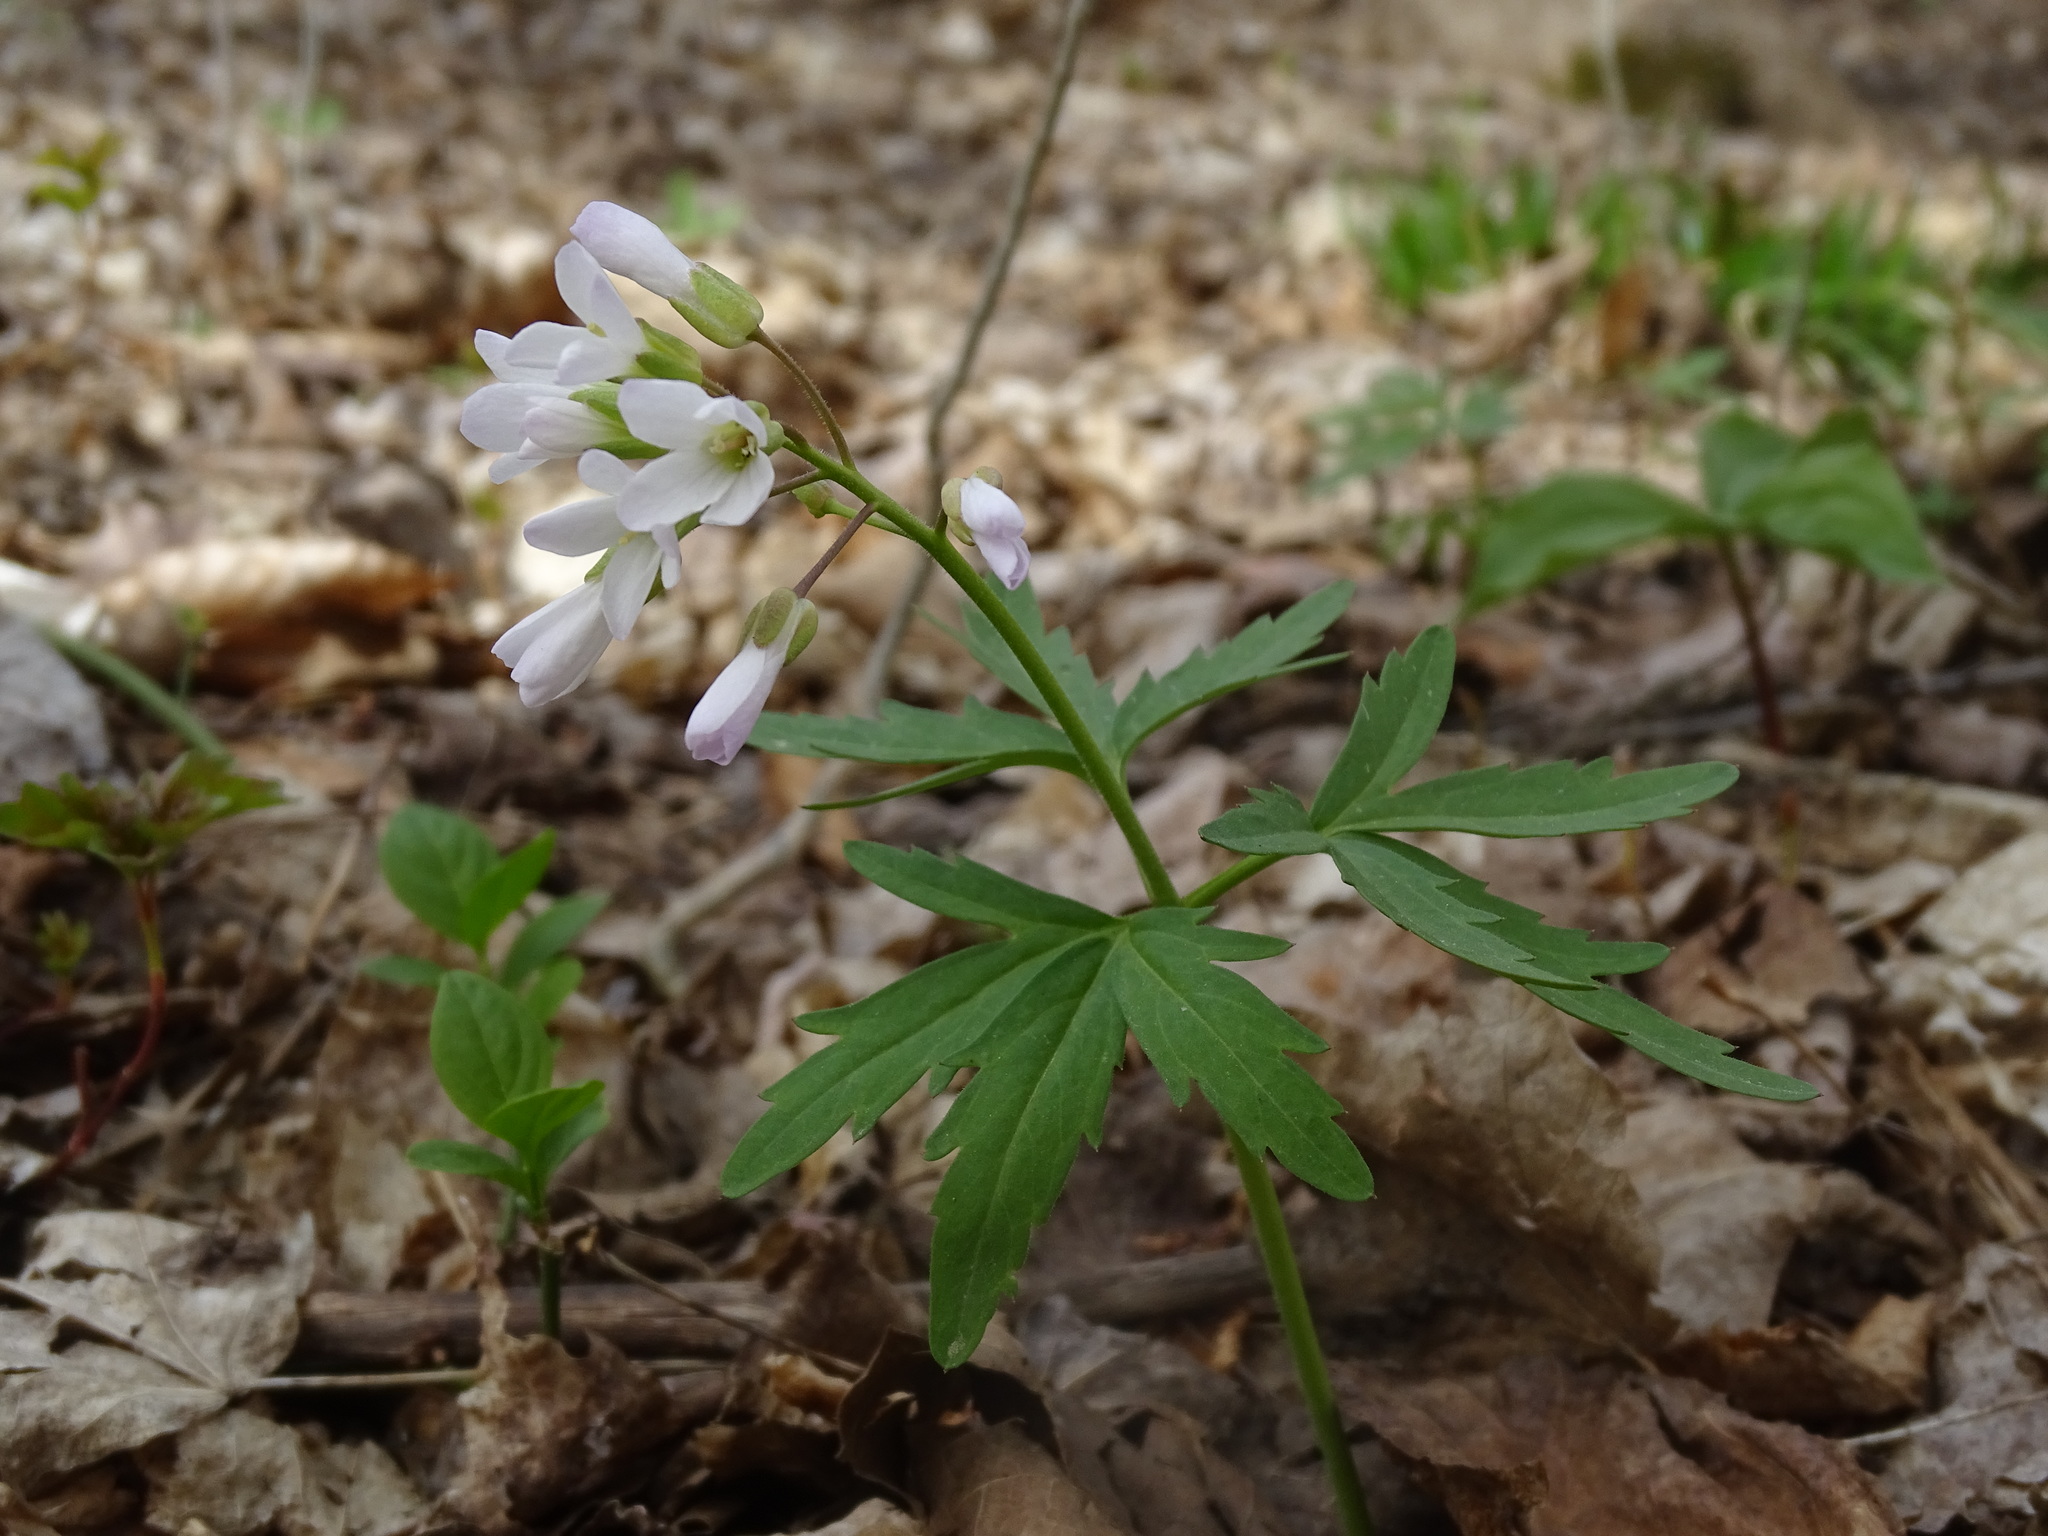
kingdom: Plantae
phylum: Tracheophyta
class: Magnoliopsida
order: Brassicales
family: Brassicaceae
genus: Cardamine
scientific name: Cardamine concatenata
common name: Cut-leaf toothcup
